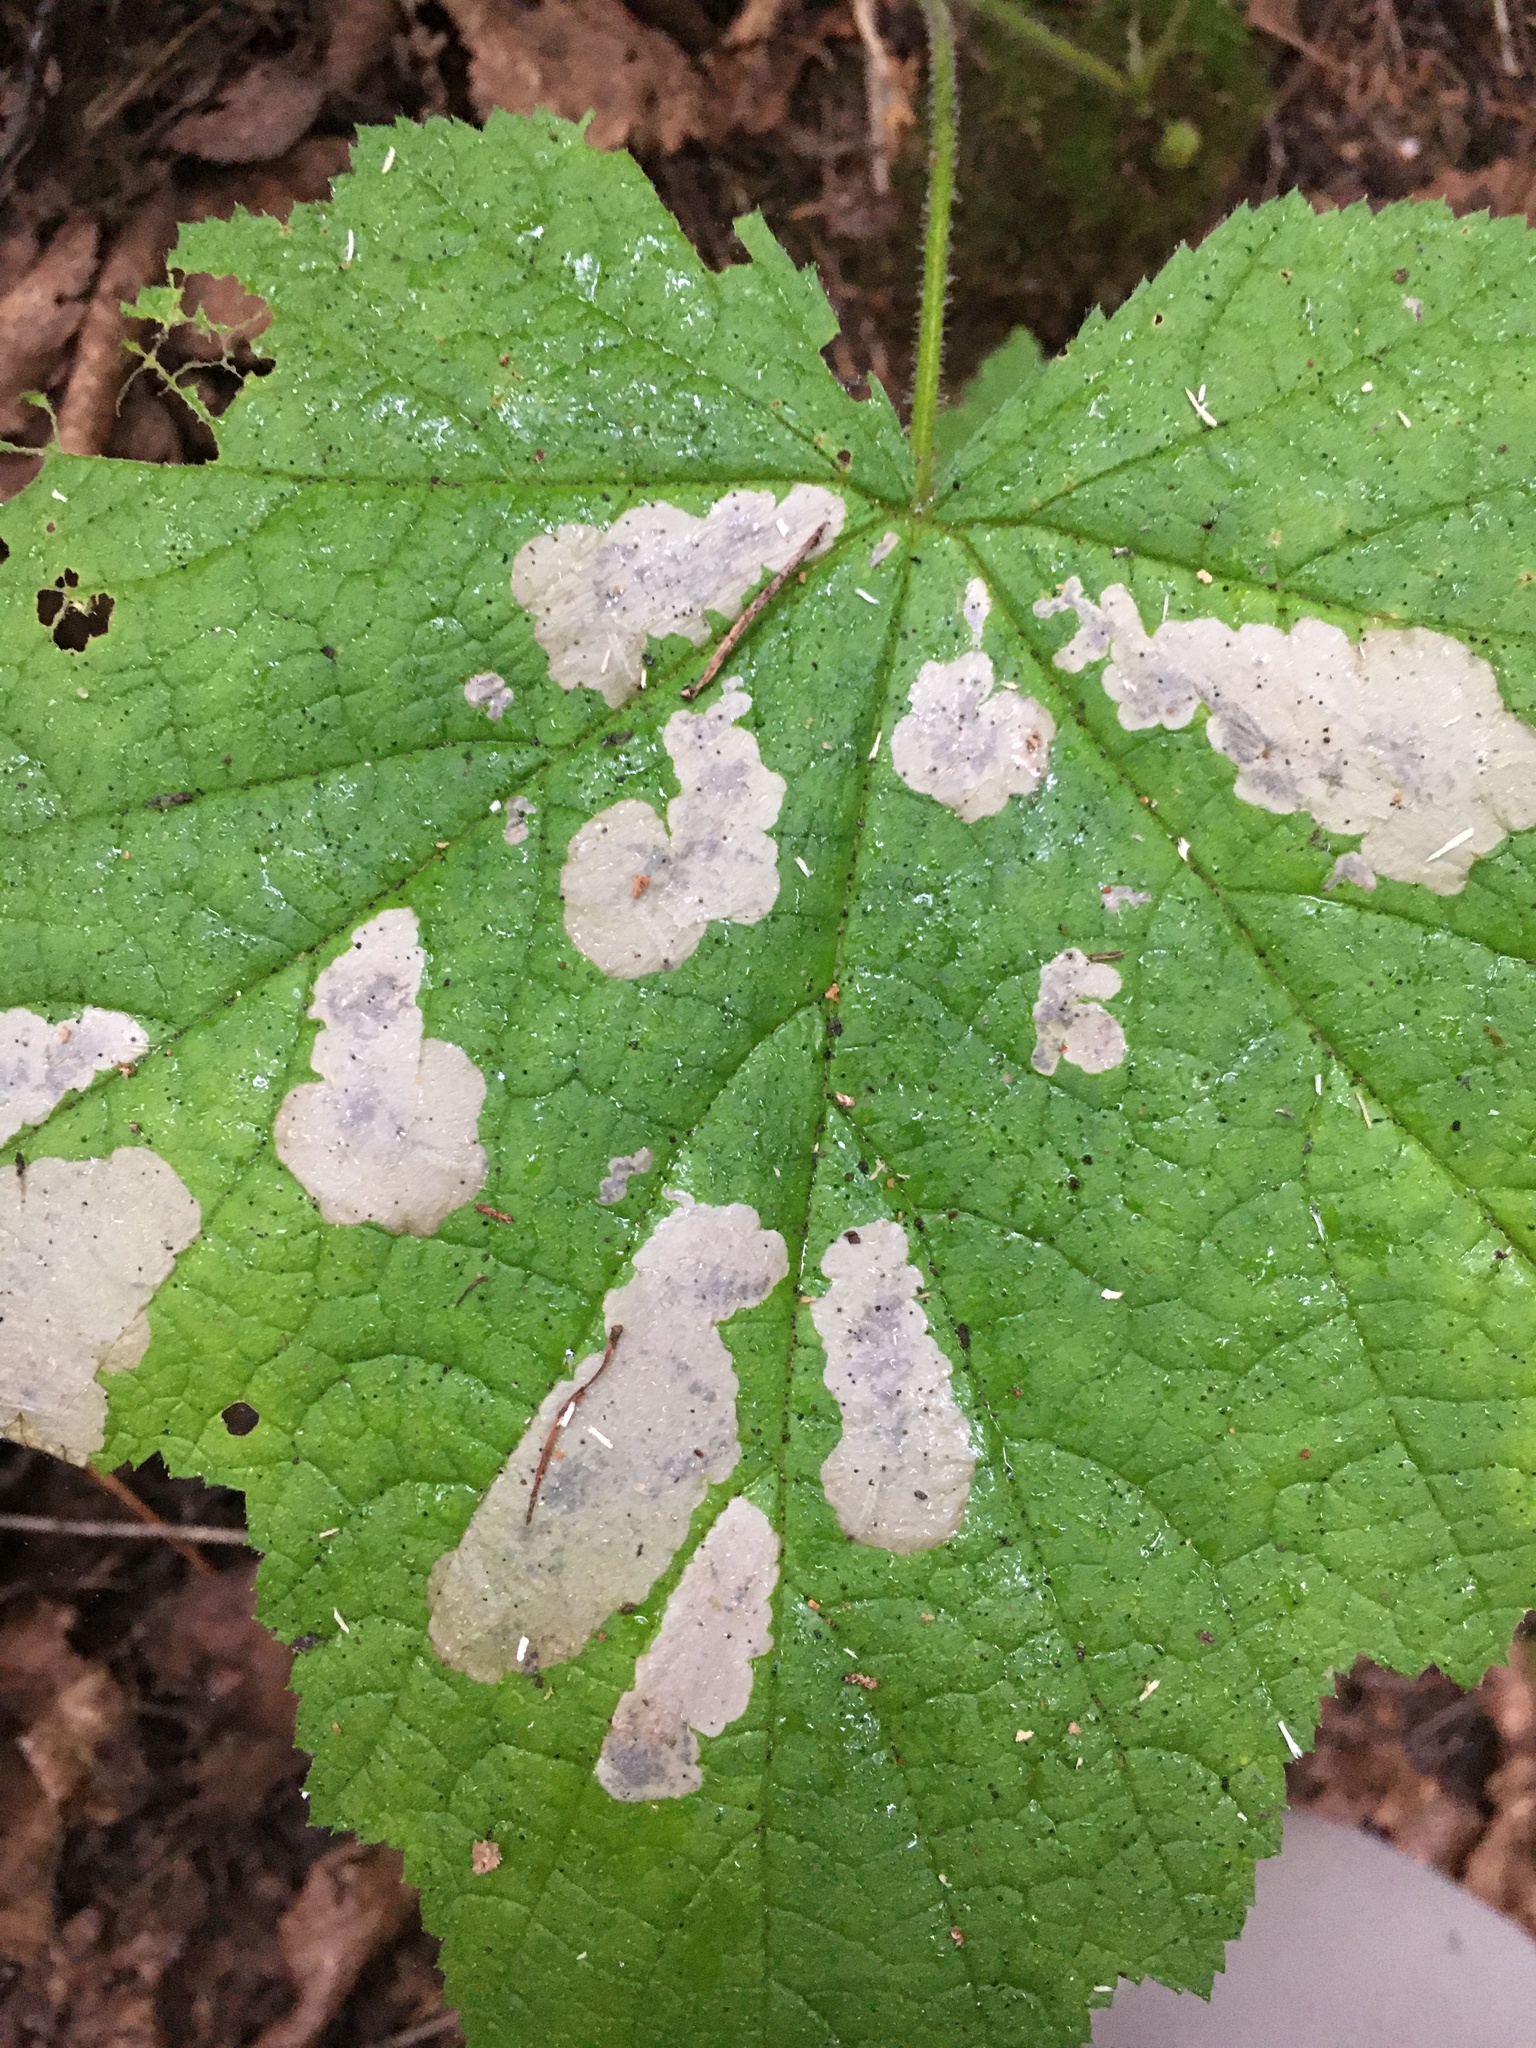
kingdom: Animalia
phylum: Arthropoda
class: Insecta
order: Hymenoptera
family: Tenthredinidae
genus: Metallus
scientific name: Metallus capitalis
